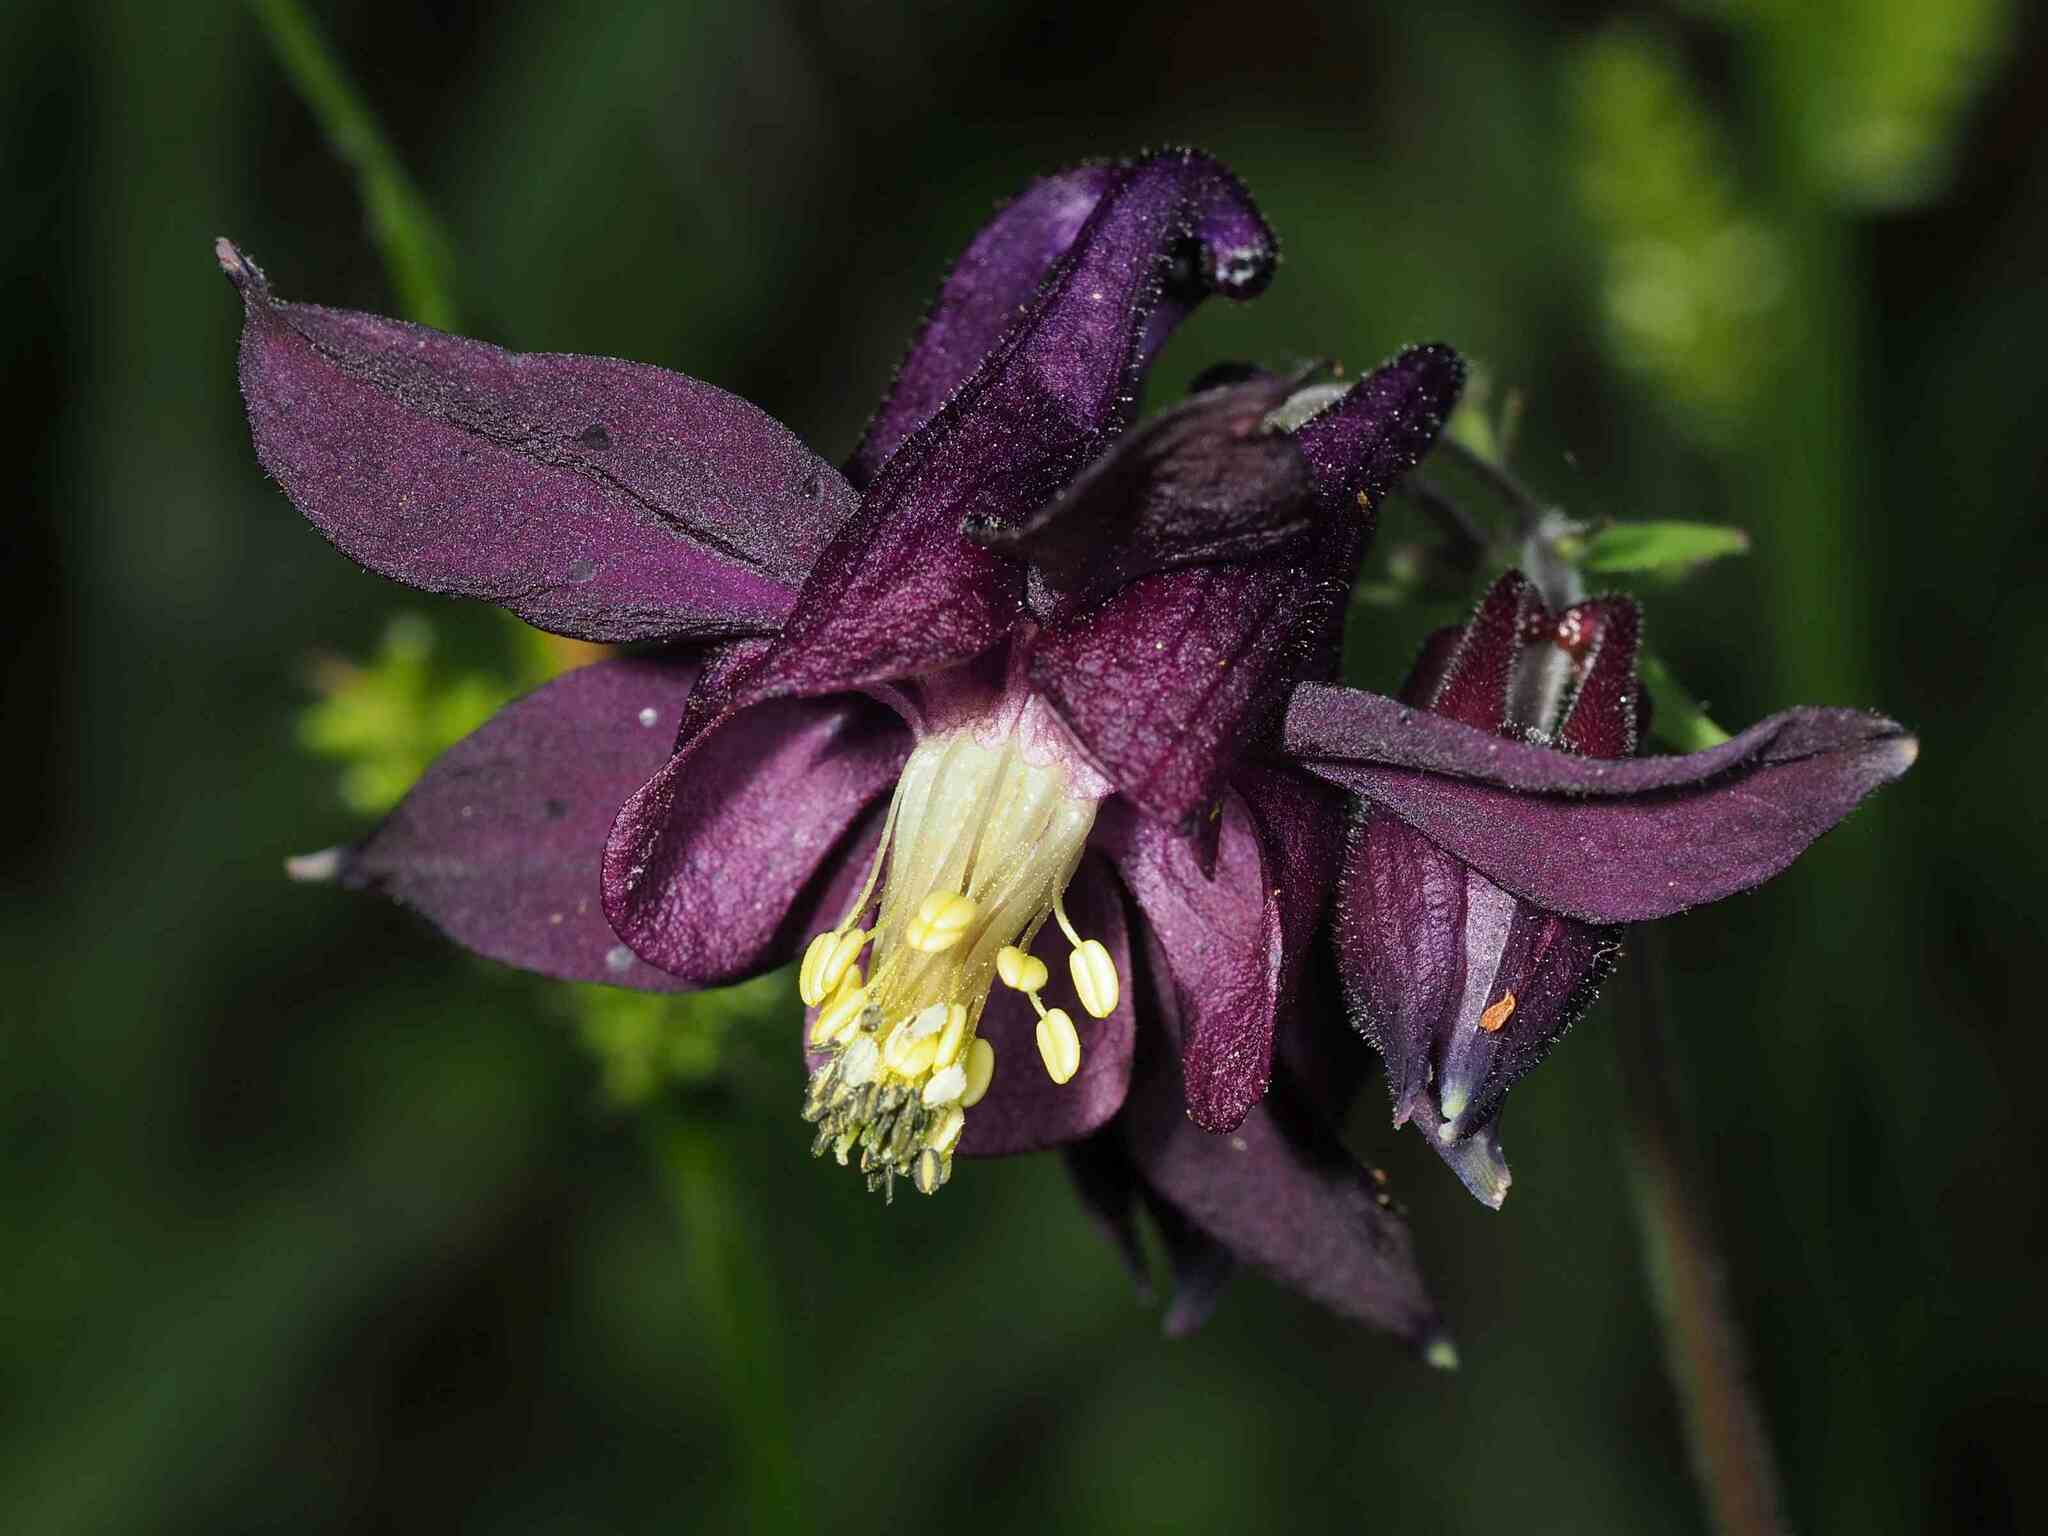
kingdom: Plantae
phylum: Tracheophyta
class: Magnoliopsida
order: Ranunculales
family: Ranunculaceae
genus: Aquilegia
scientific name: Aquilegia atrata
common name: Dark columbine
